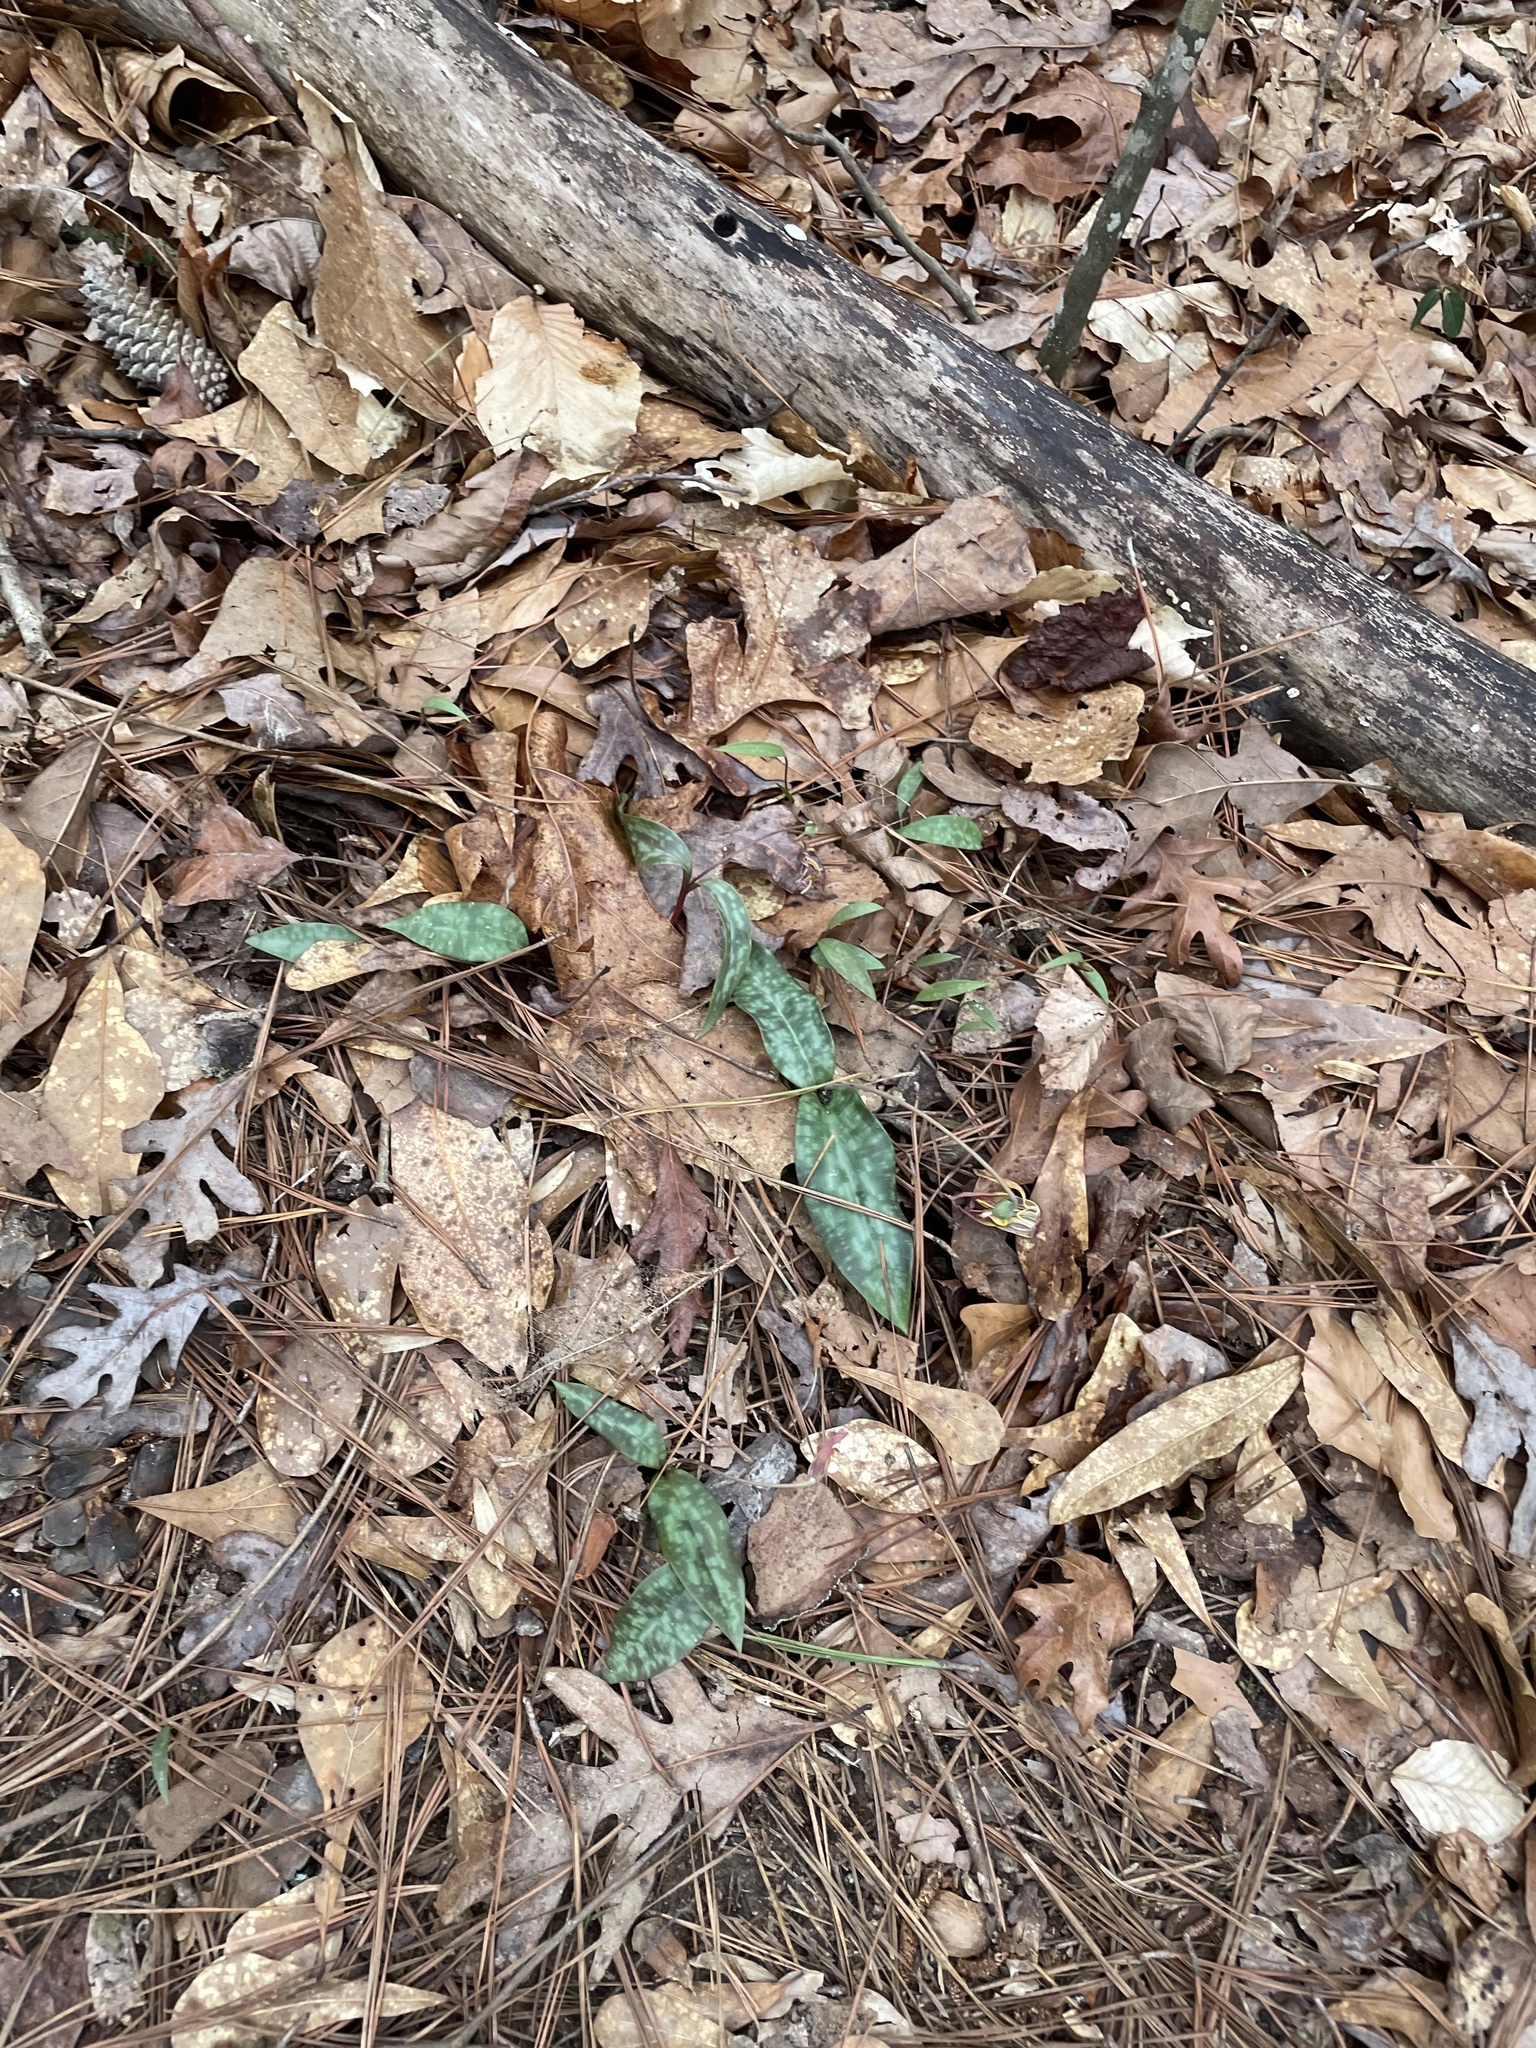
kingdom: Plantae
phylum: Tracheophyta
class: Liliopsida
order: Liliales
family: Liliaceae
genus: Erythronium
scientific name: Erythronium umbilicatum
